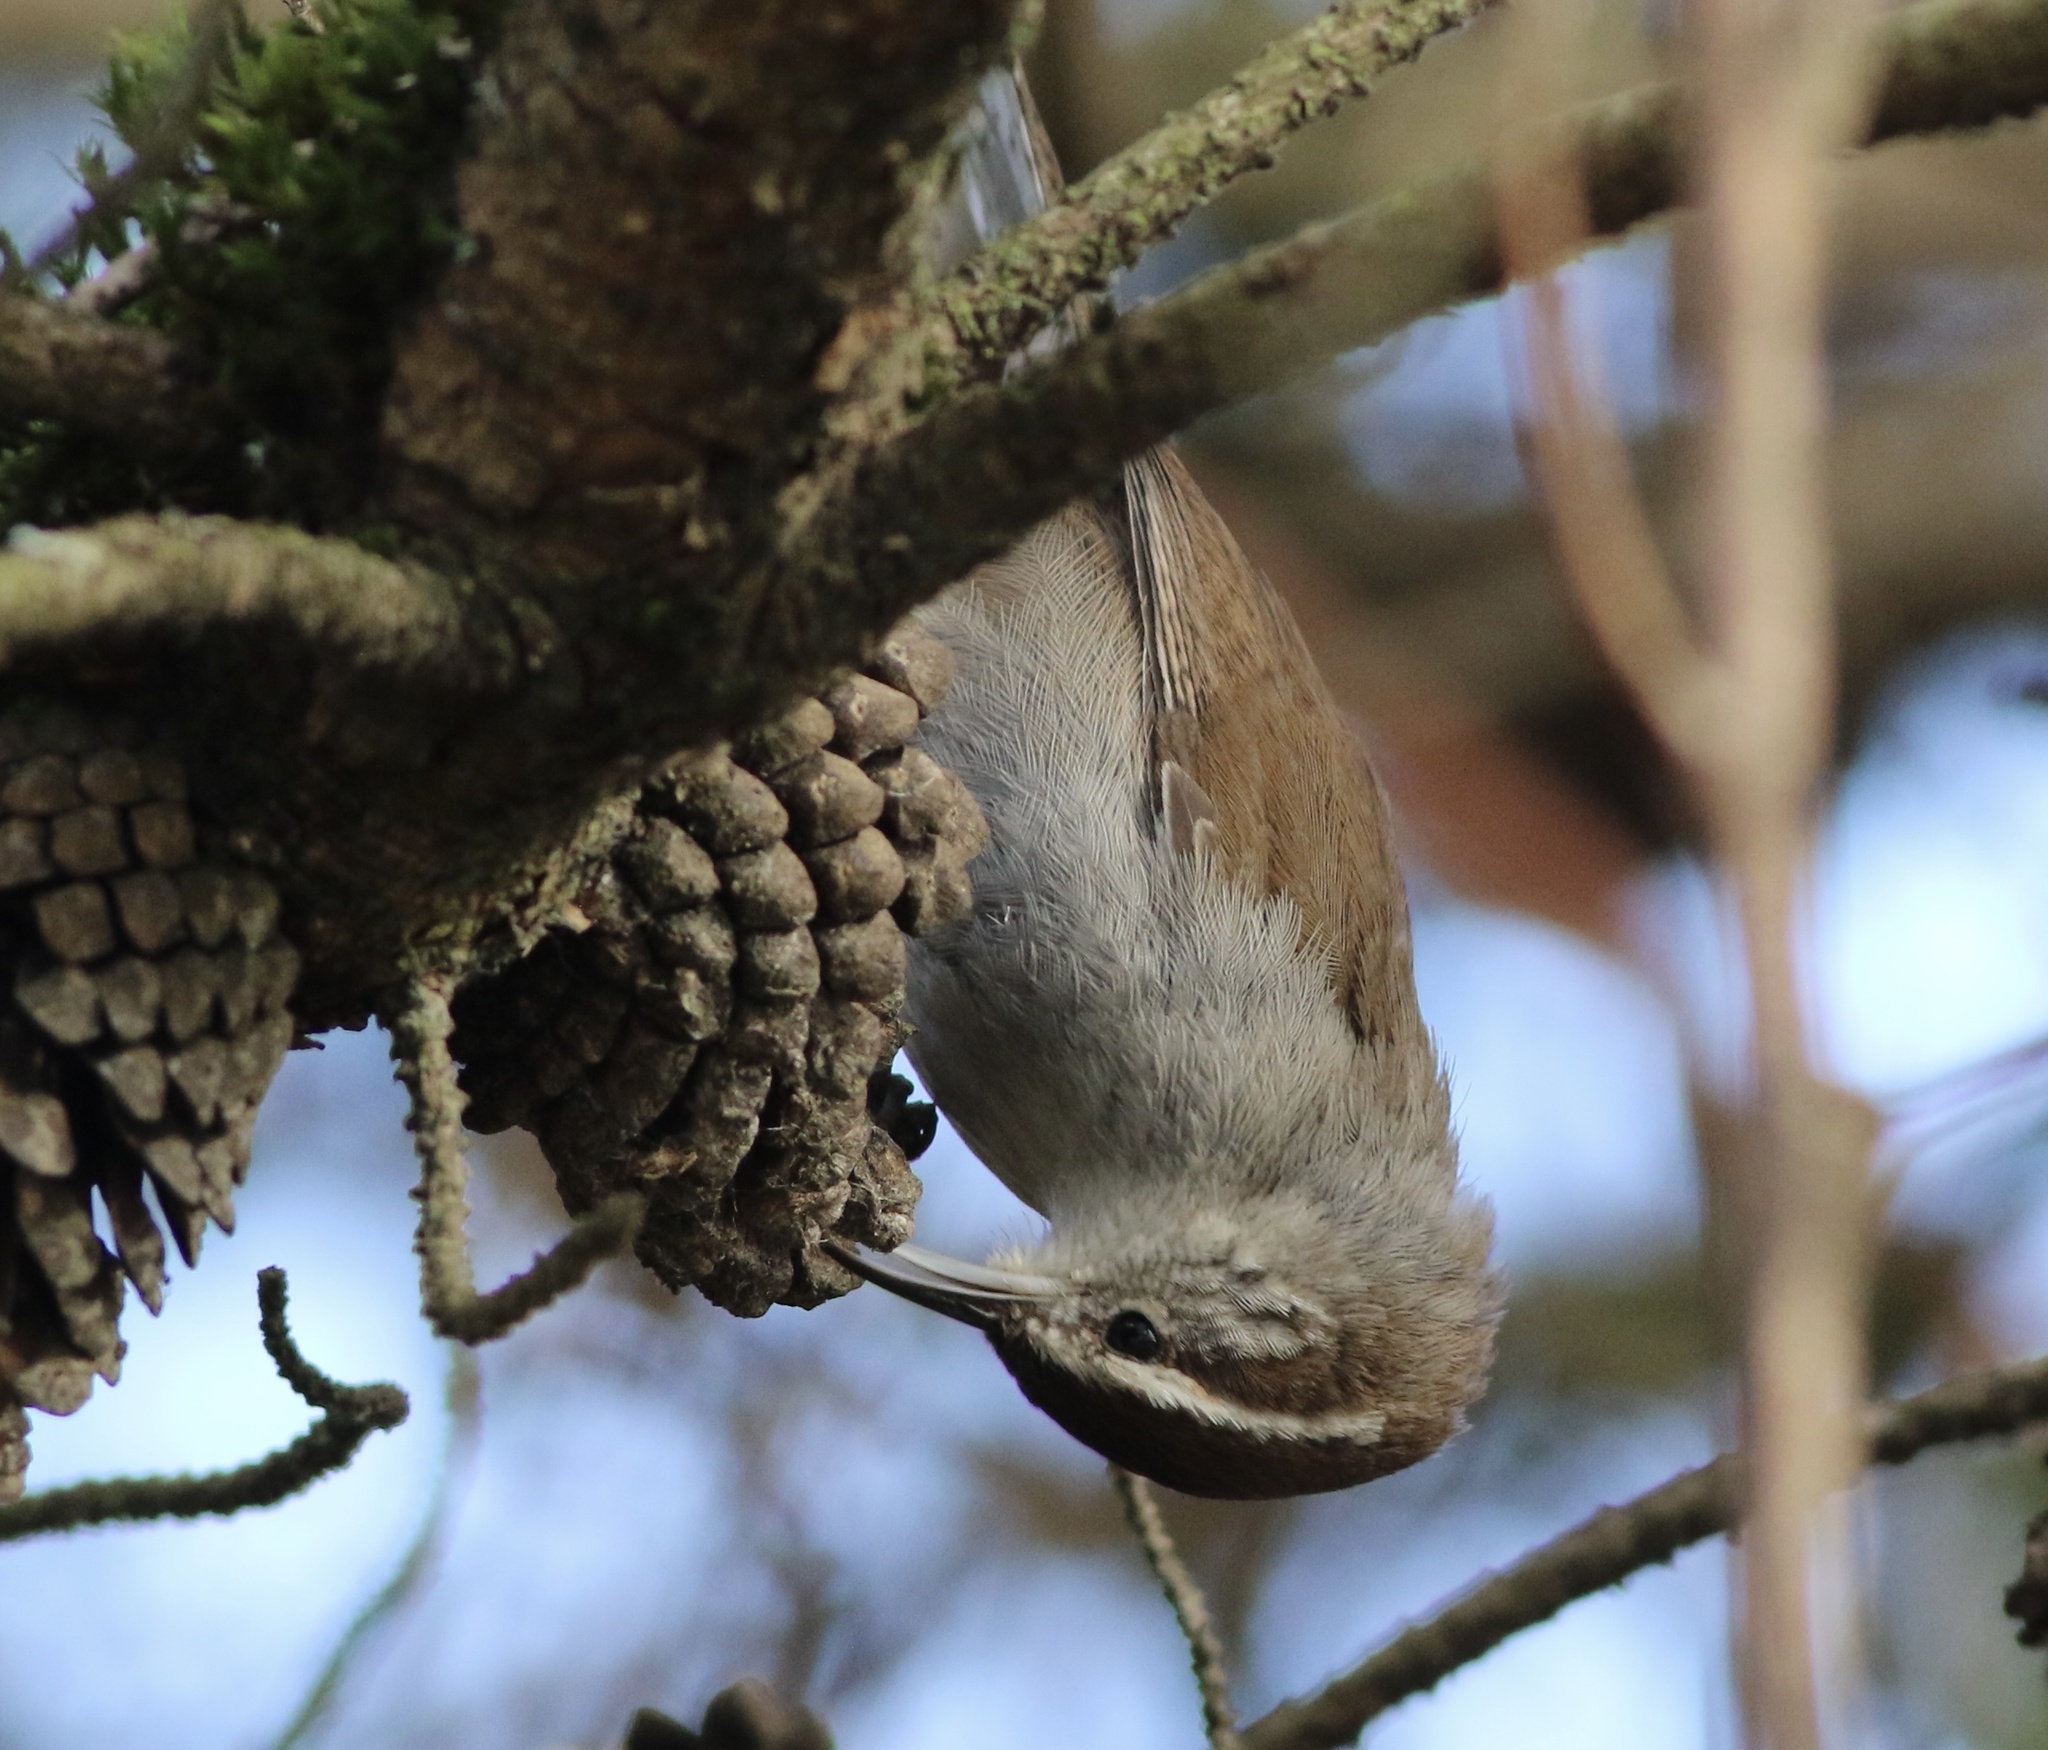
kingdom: Animalia
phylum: Chordata
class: Aves
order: Passeriformes
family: Troglodytidae
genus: Thryomanes
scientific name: Thryomanes bewickii
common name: Bewick's wren
